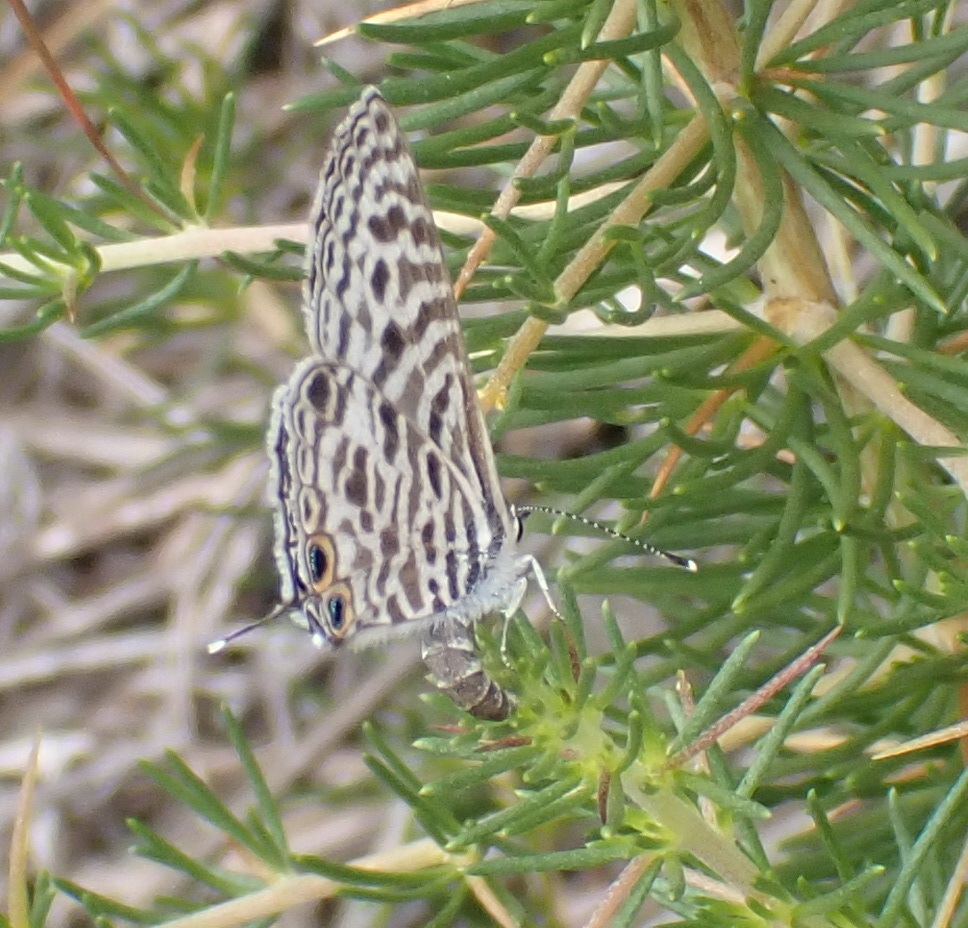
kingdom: Animalia
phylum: Arthropoda
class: Insecta
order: Lepidoptera
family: Lycaenidae
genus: Leptotes
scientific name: Leptotes
